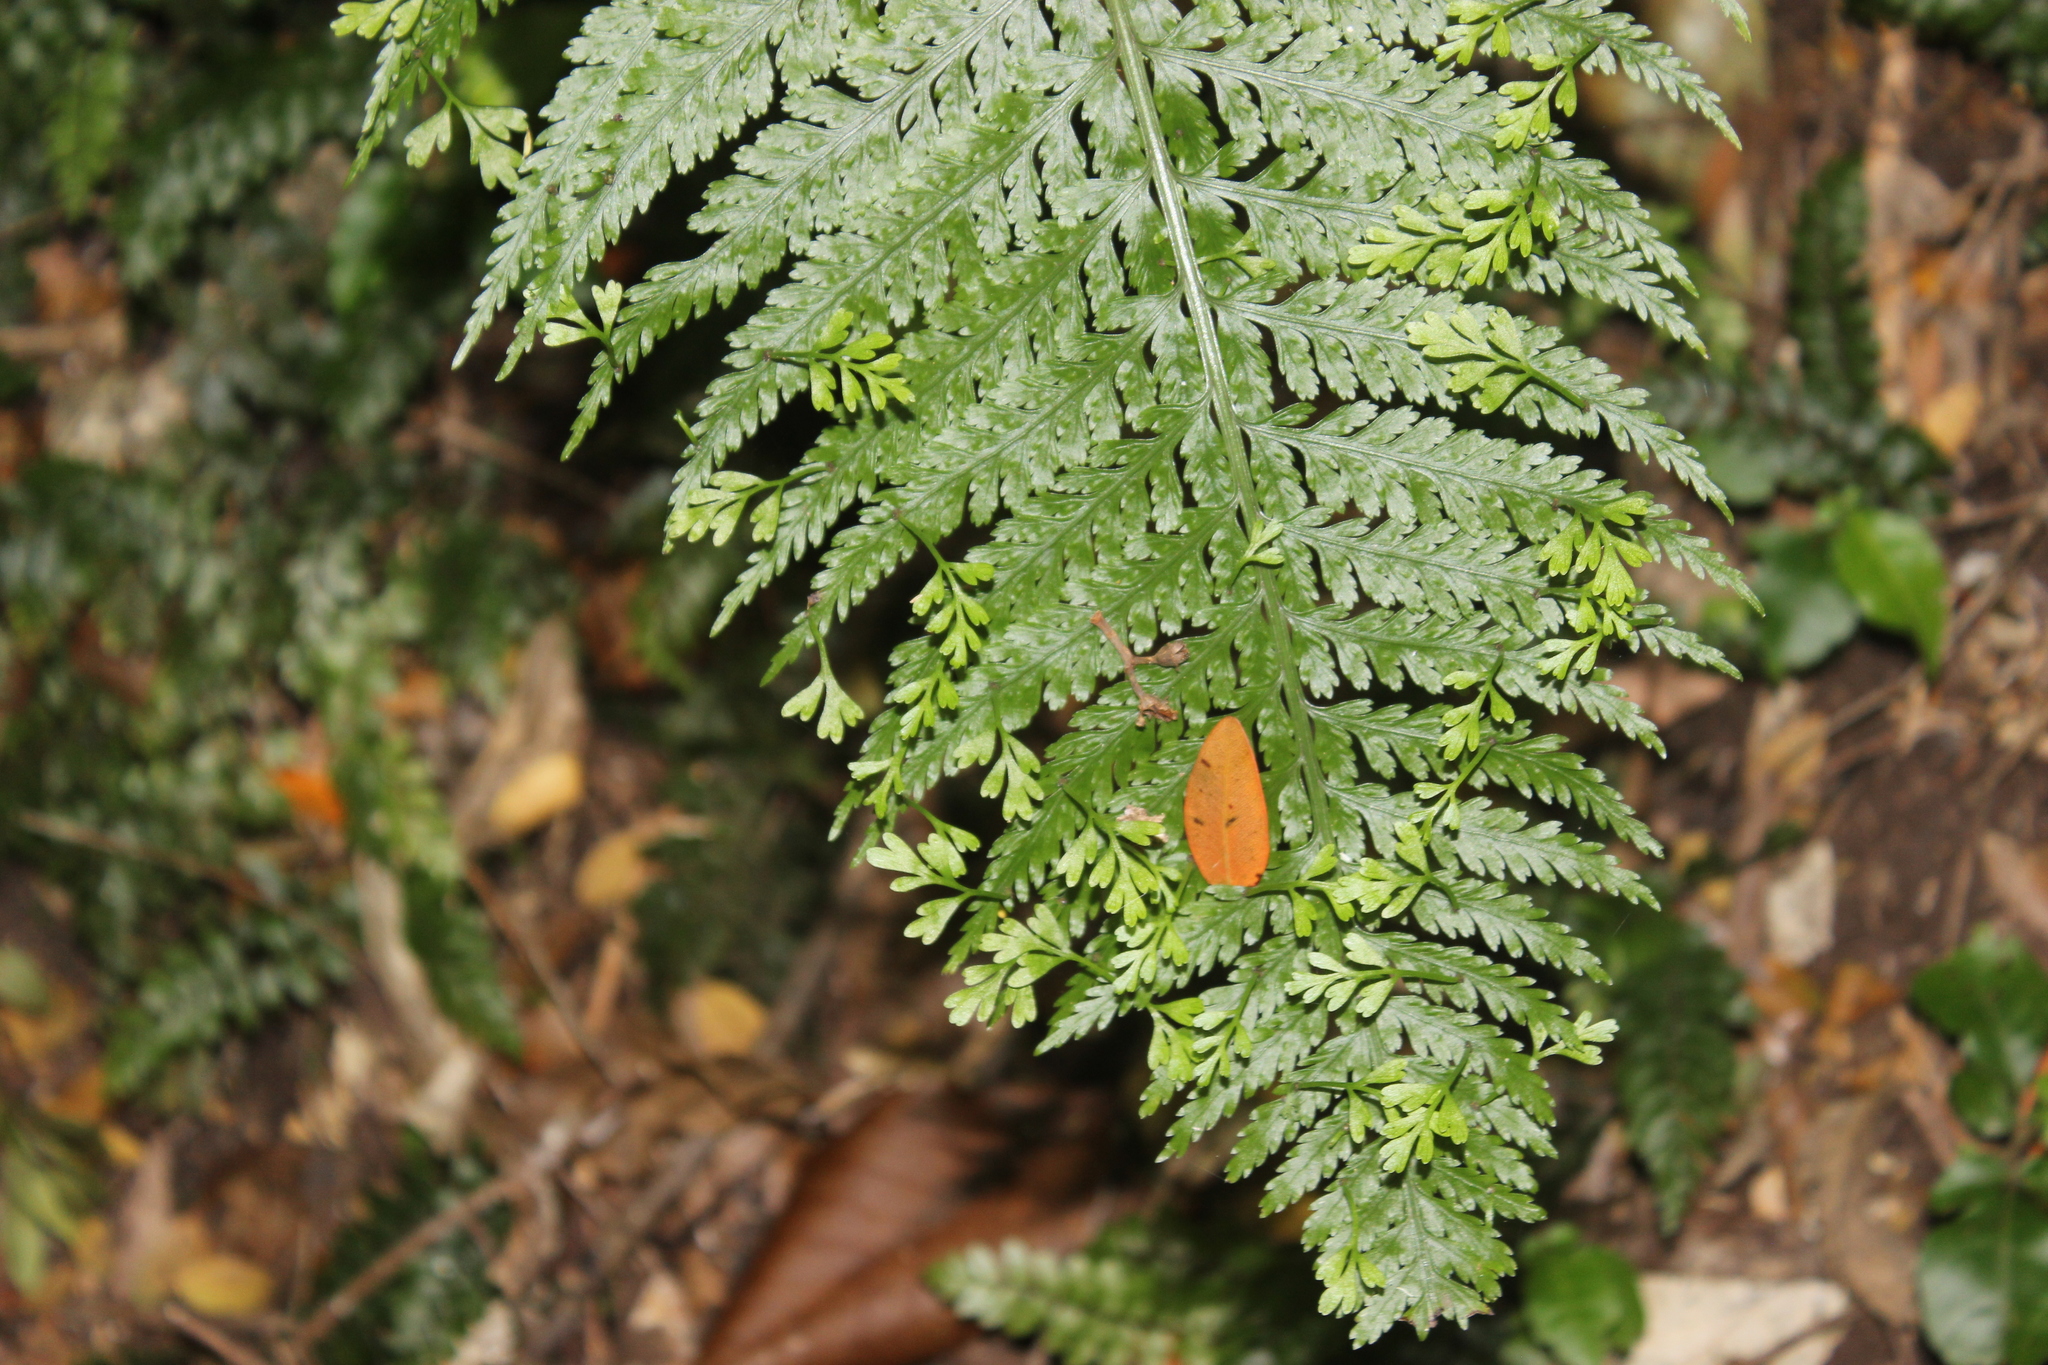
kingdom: Plantae
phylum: Tracheophyta
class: Polypodiopsida
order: Polypodiales
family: Aspleniaceae
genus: Asplenium
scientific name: Asplenium bulbiferum
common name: Mother fern
